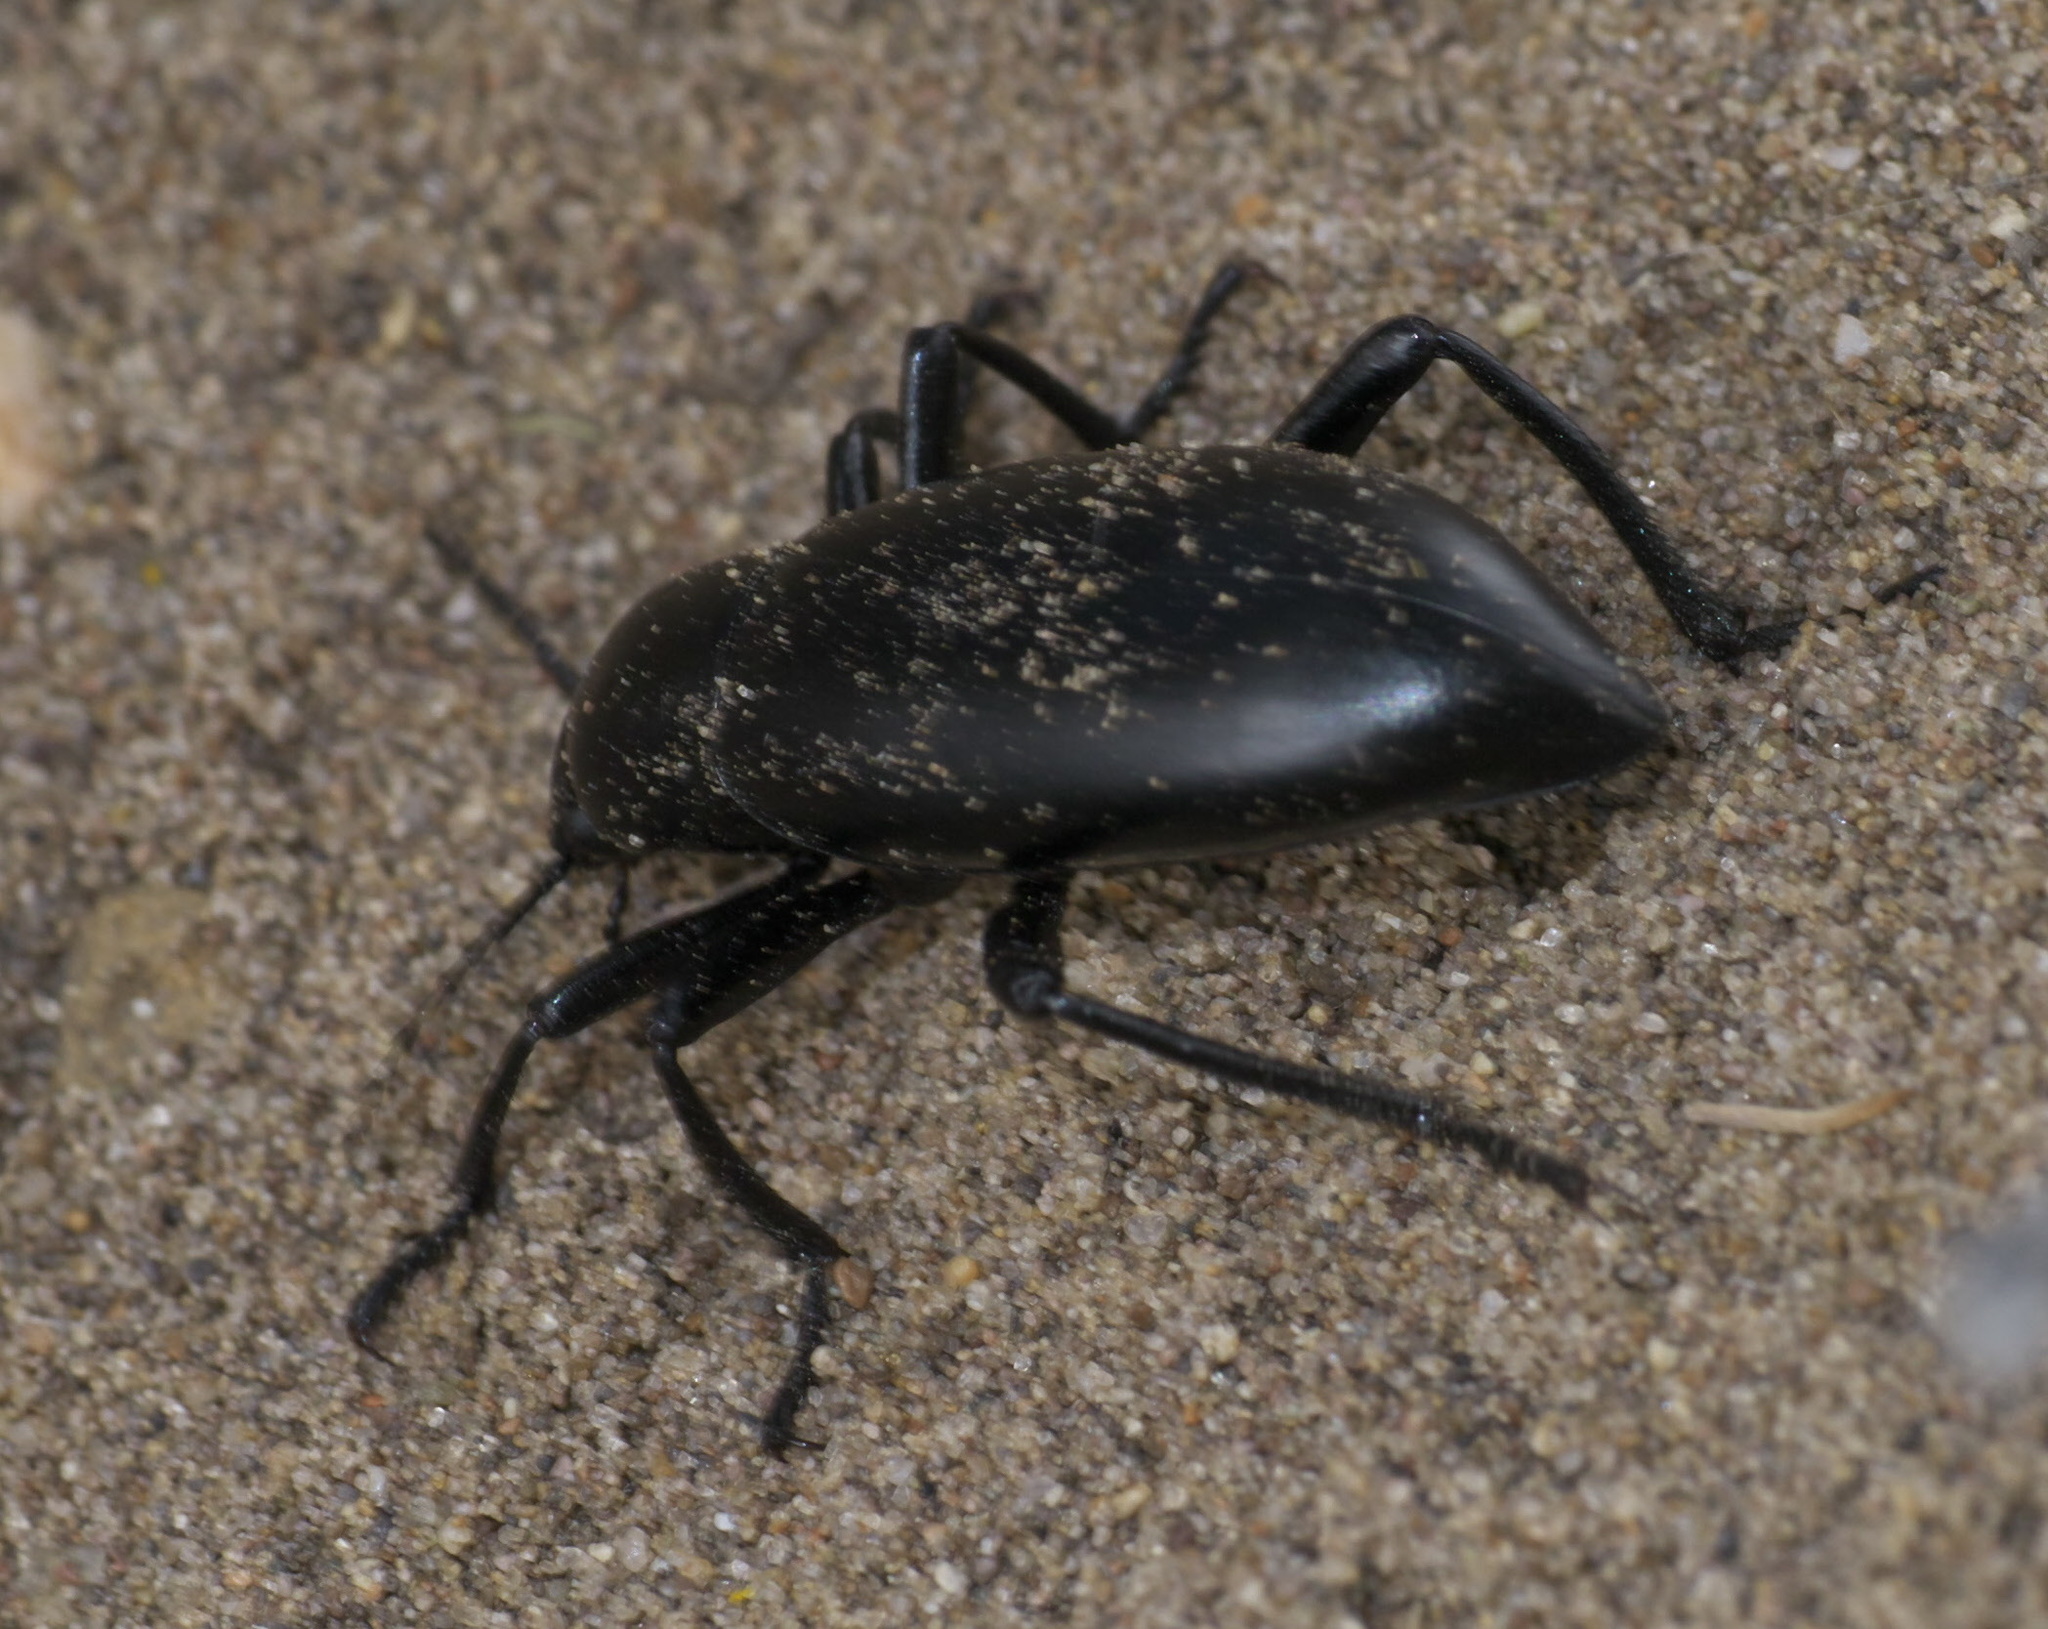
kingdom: Animalia
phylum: Arthropoda
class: Insecta
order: Coleoptera
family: Tenebrionidae
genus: Eleodes
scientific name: Eleodes longicollis
